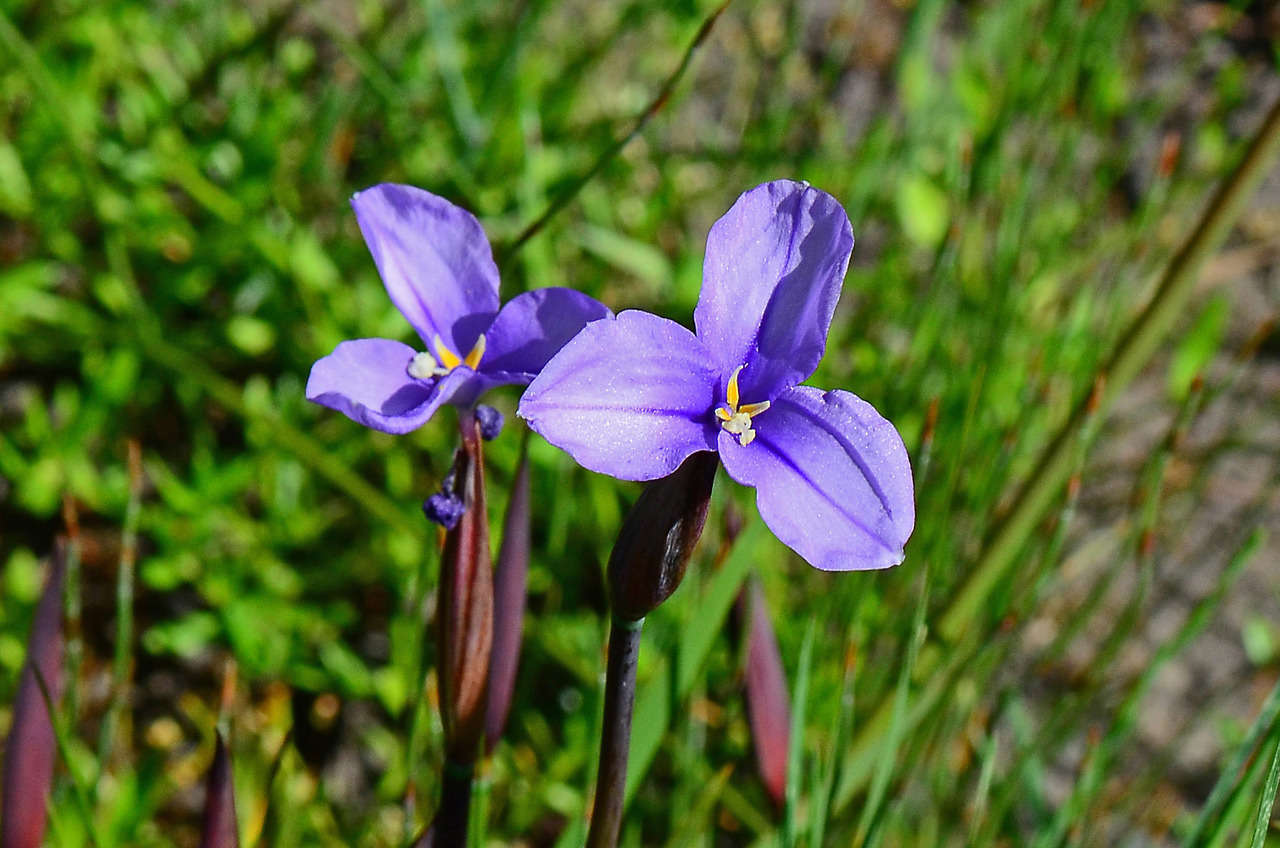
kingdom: Plantae
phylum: Tracheophyta
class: Liliopsida
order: Asparagales
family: Iridaceae
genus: Patersonia
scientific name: Patersonia occidentalis
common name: Long purple-flag
